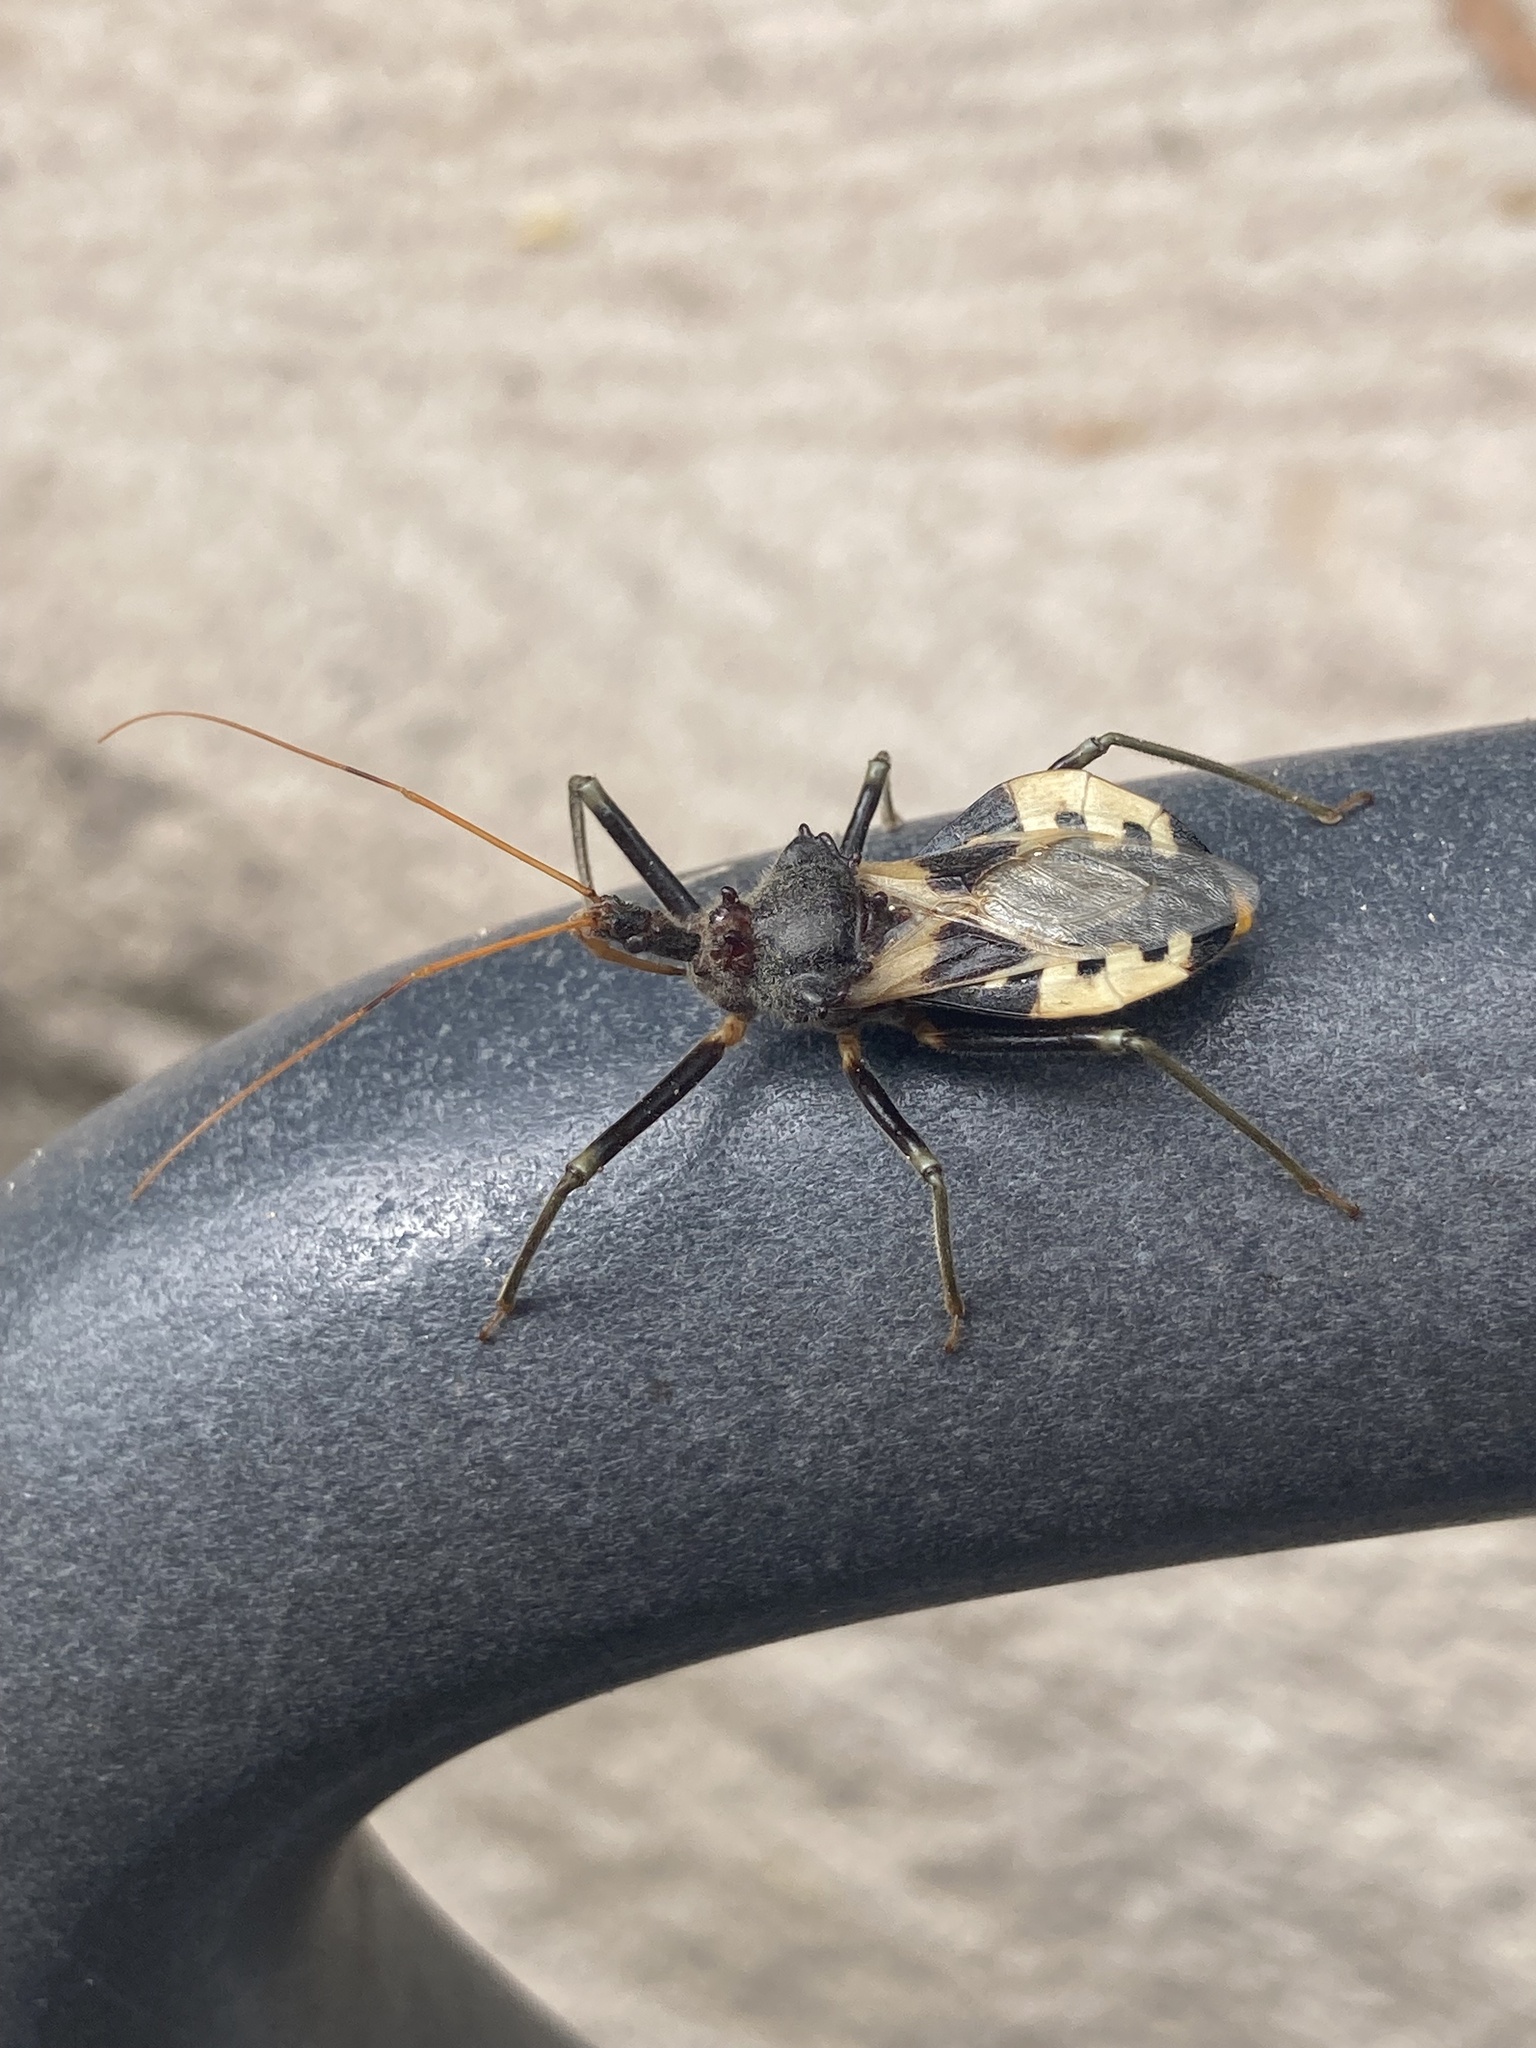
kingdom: Animalia
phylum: Arthropoda
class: Insecta
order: Hemiptera
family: Reduviidae
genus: Pristhesancus
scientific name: Pristhesancus plagipennis
